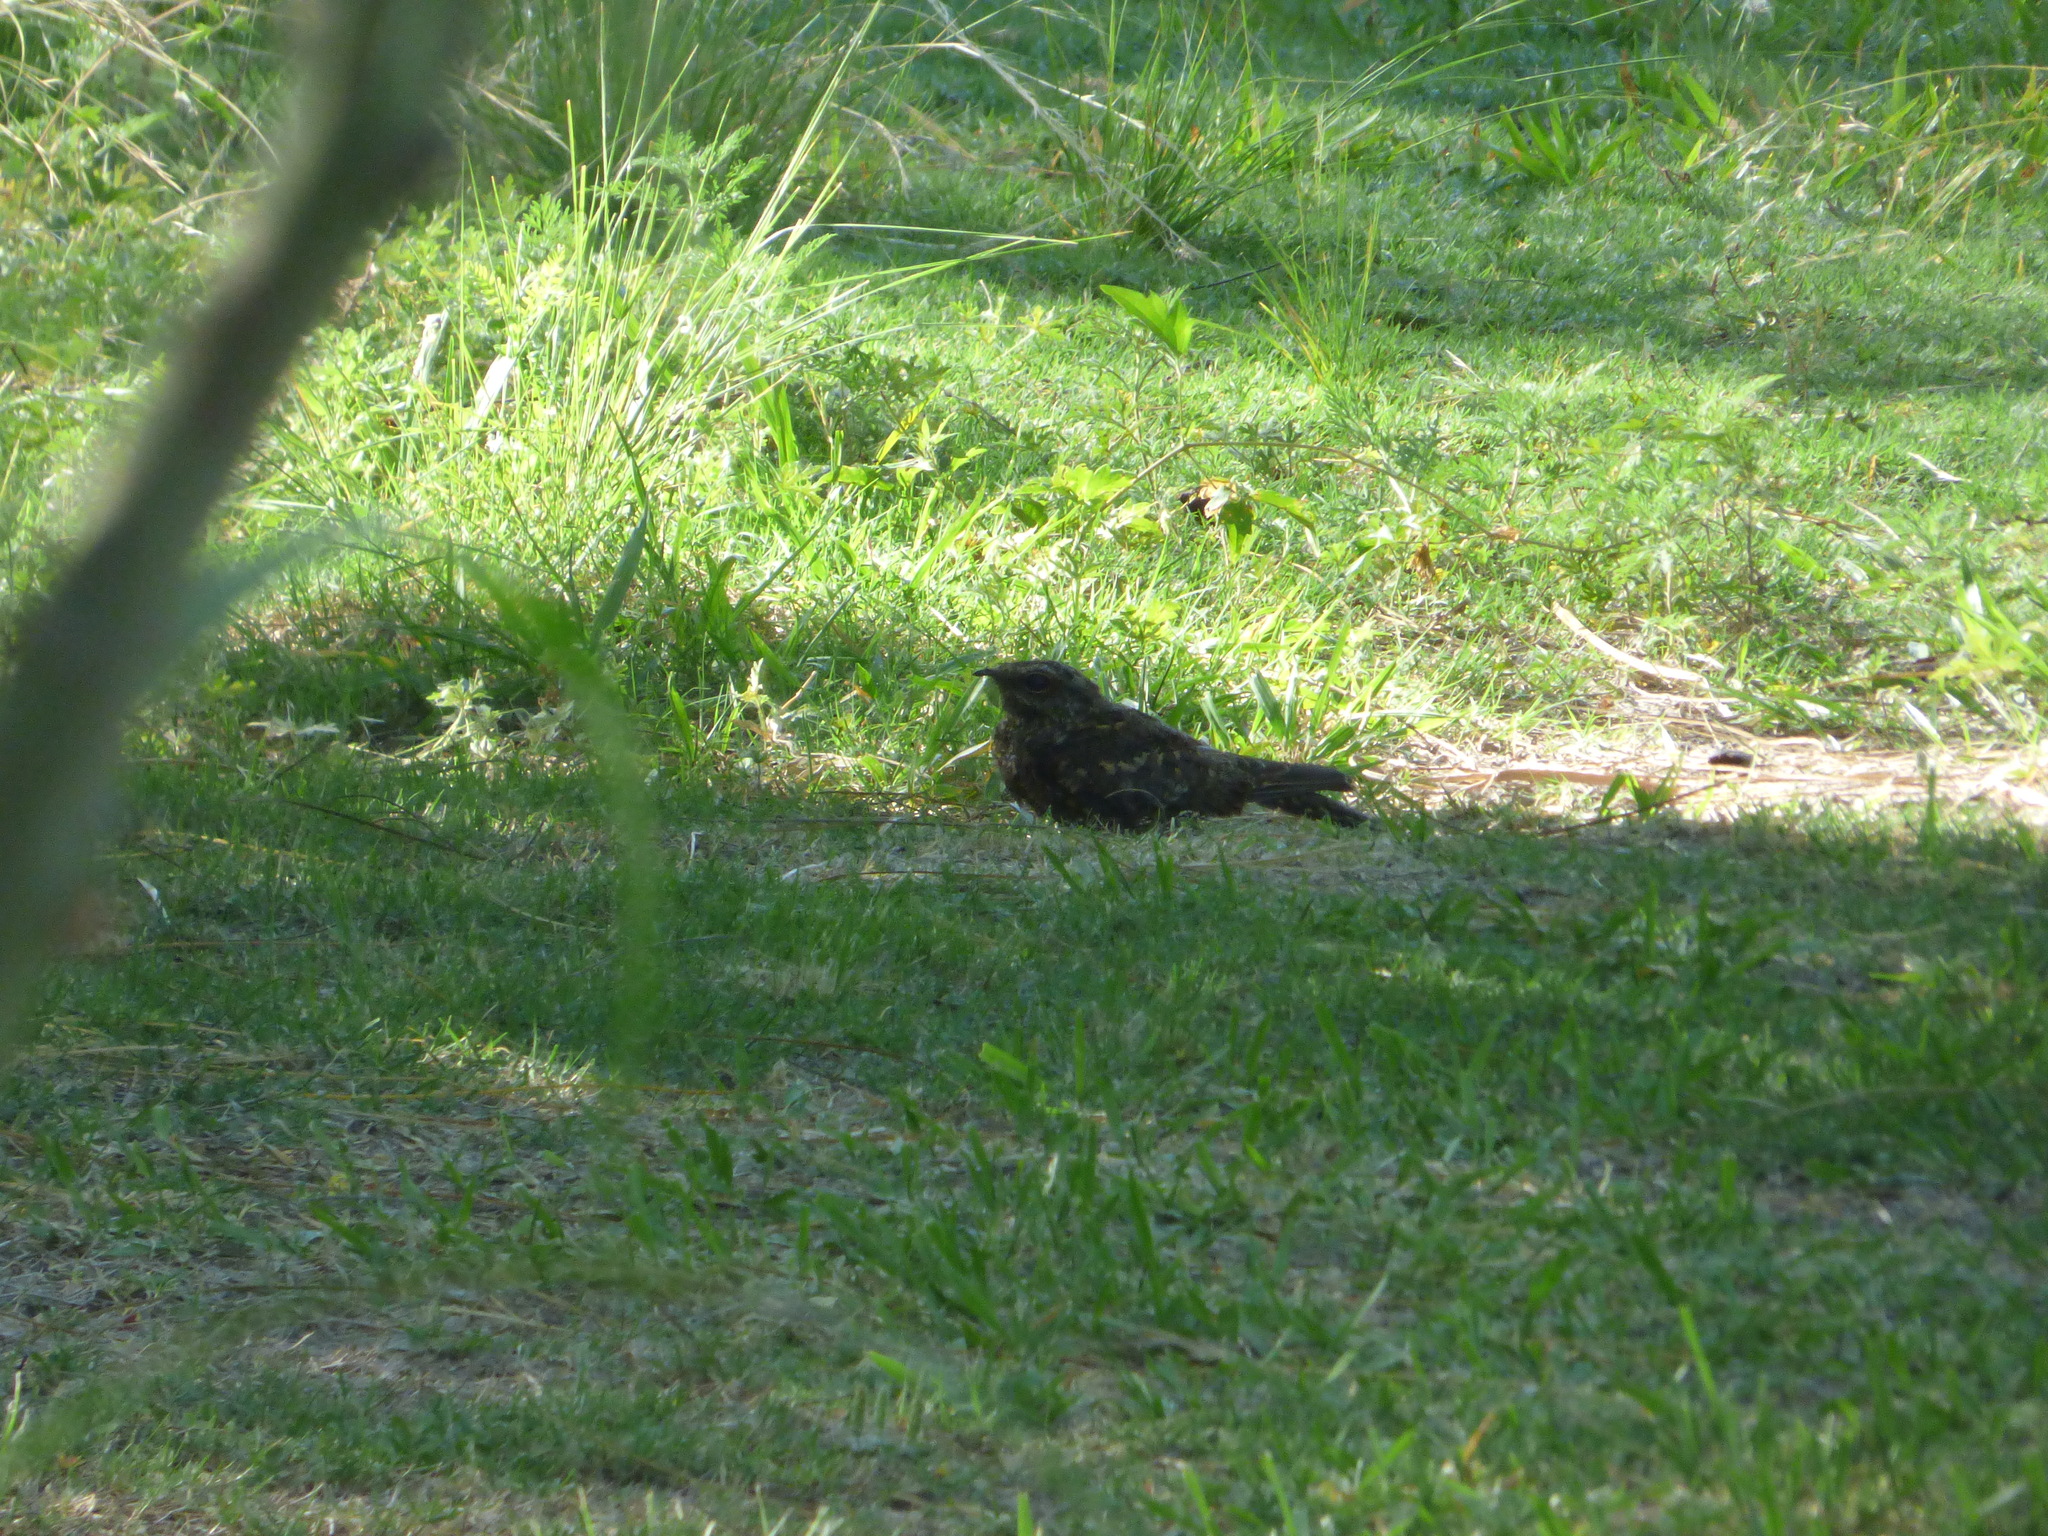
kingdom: Animalia
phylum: Chordata
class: Aves
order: Caprimulgiformes
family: Caprimulgidae
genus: Hydropsalis
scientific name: Hydropsalis torquata
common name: Scissor-tailed nightjar
